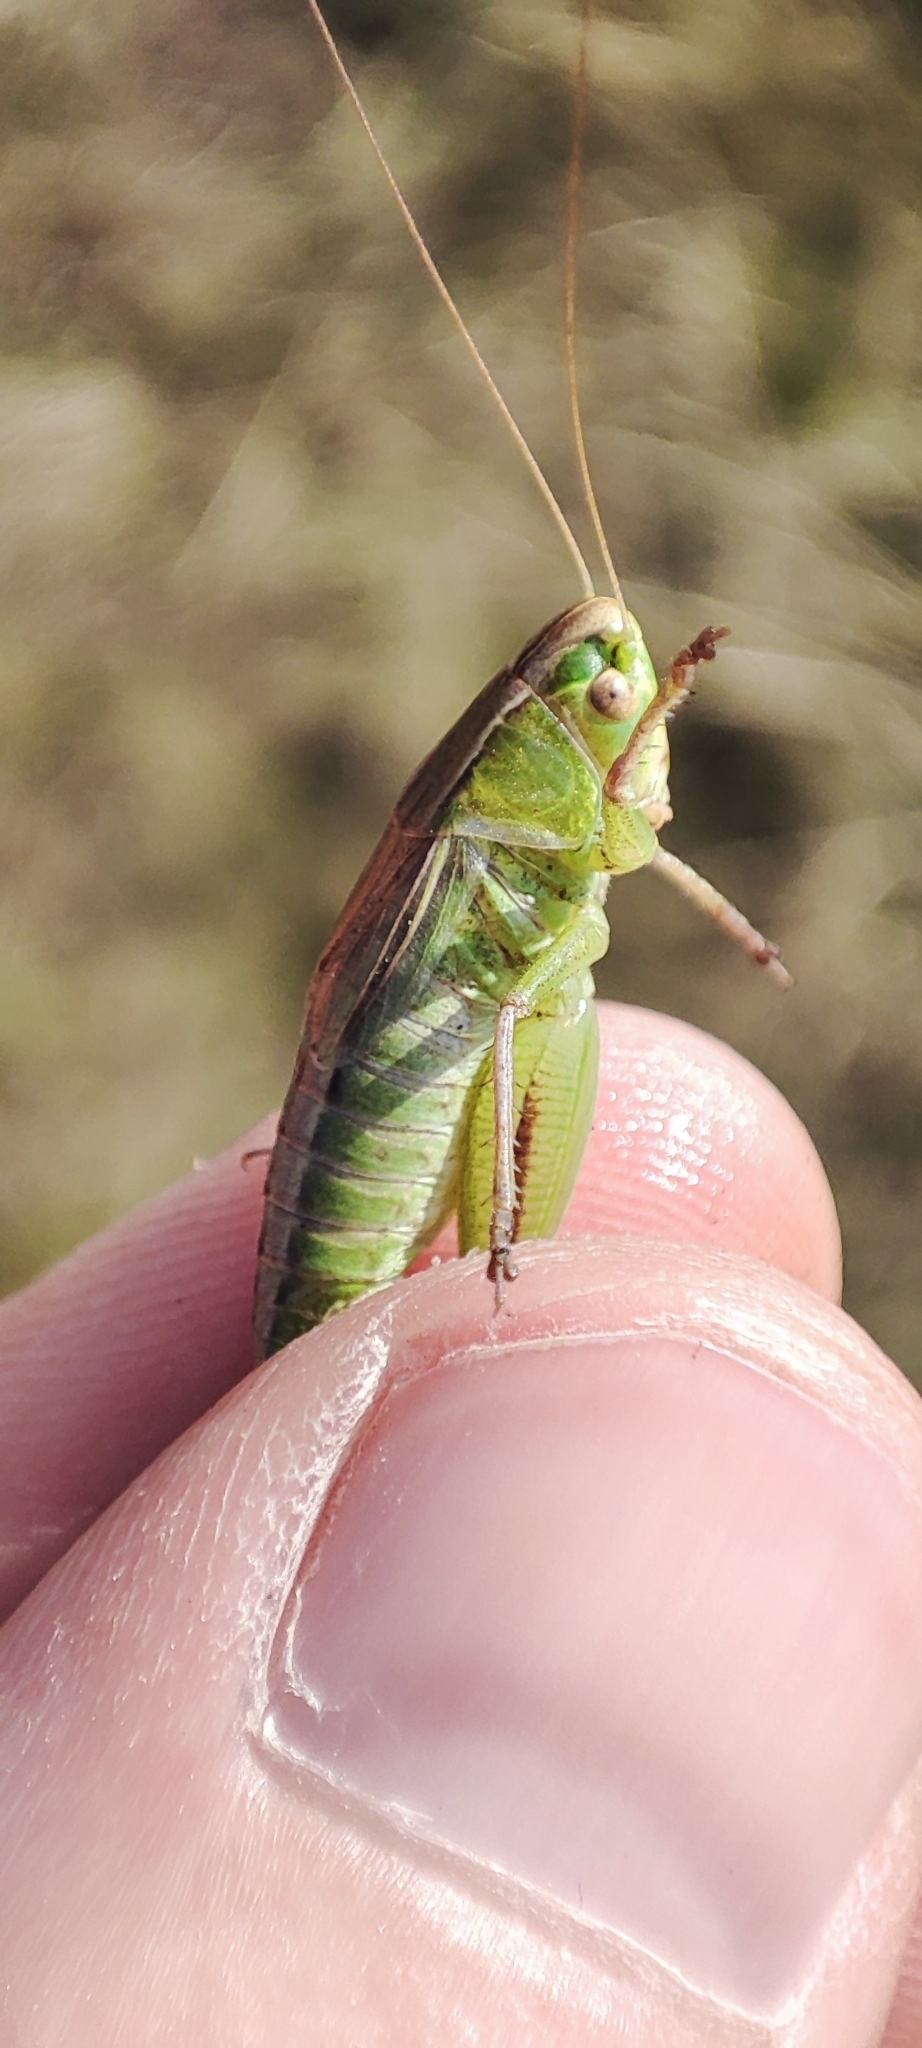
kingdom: Animalia
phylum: Arthropoda
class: Insecta
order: Orthoptera
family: Tettigoniidae
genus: Bicolorana
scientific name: Bicolorana bicolor
